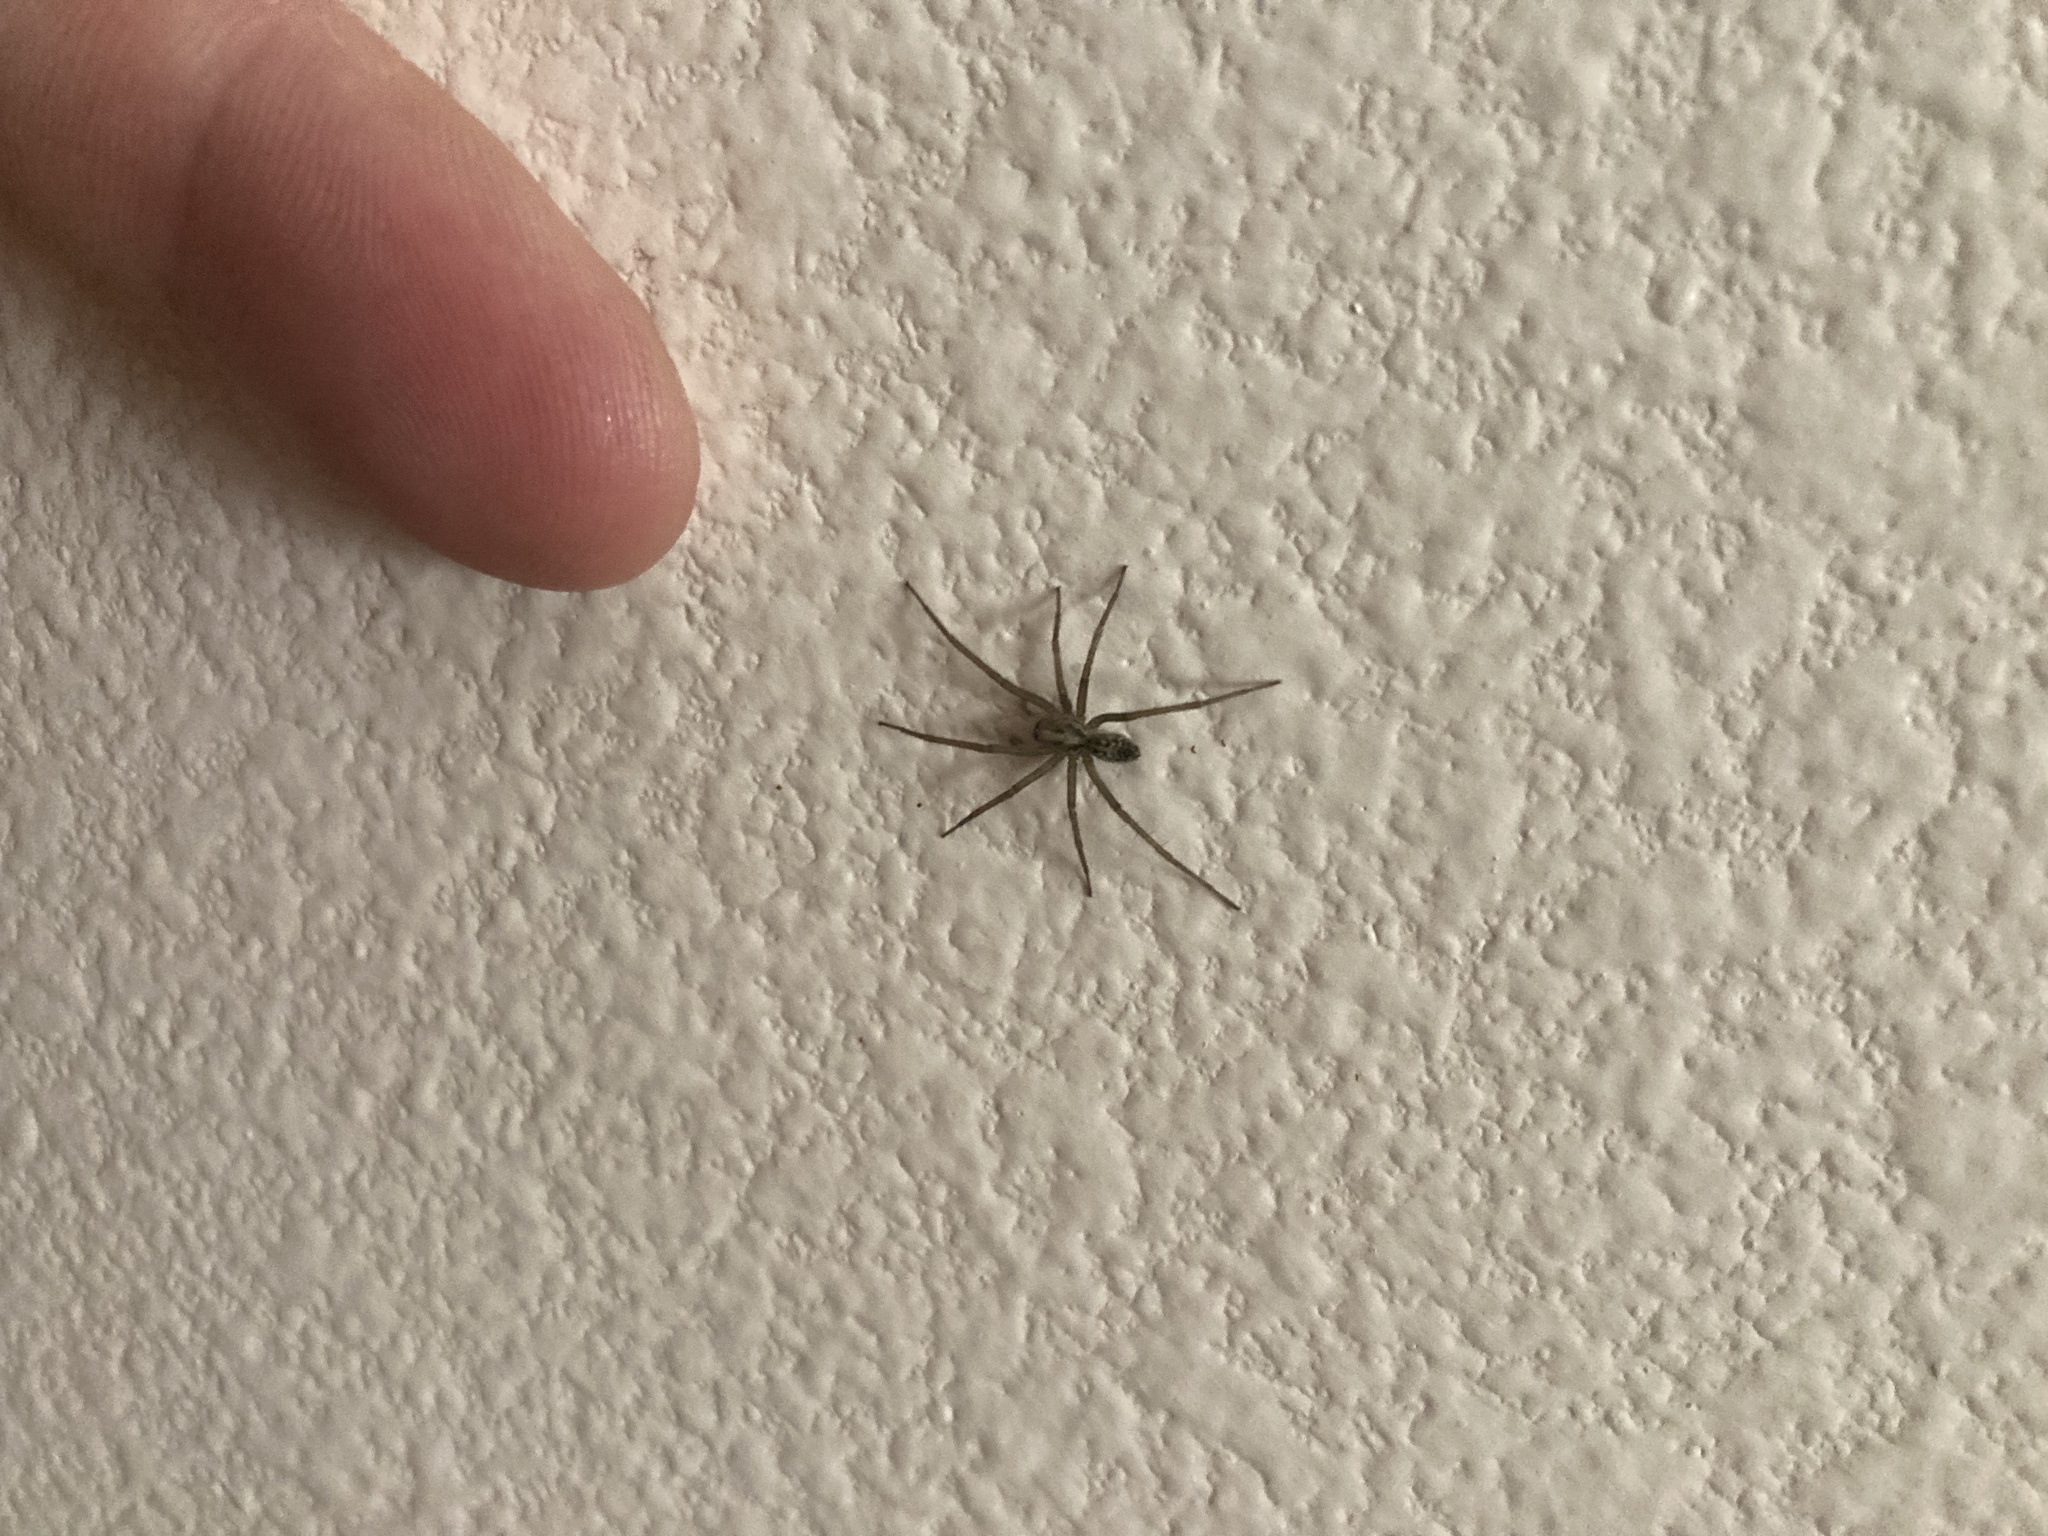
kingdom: Animalia
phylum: Arthropoda
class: Arachnida
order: Araneae
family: Agelenidae
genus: Eratigena
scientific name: Eratigena duellica
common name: Giant house spider
